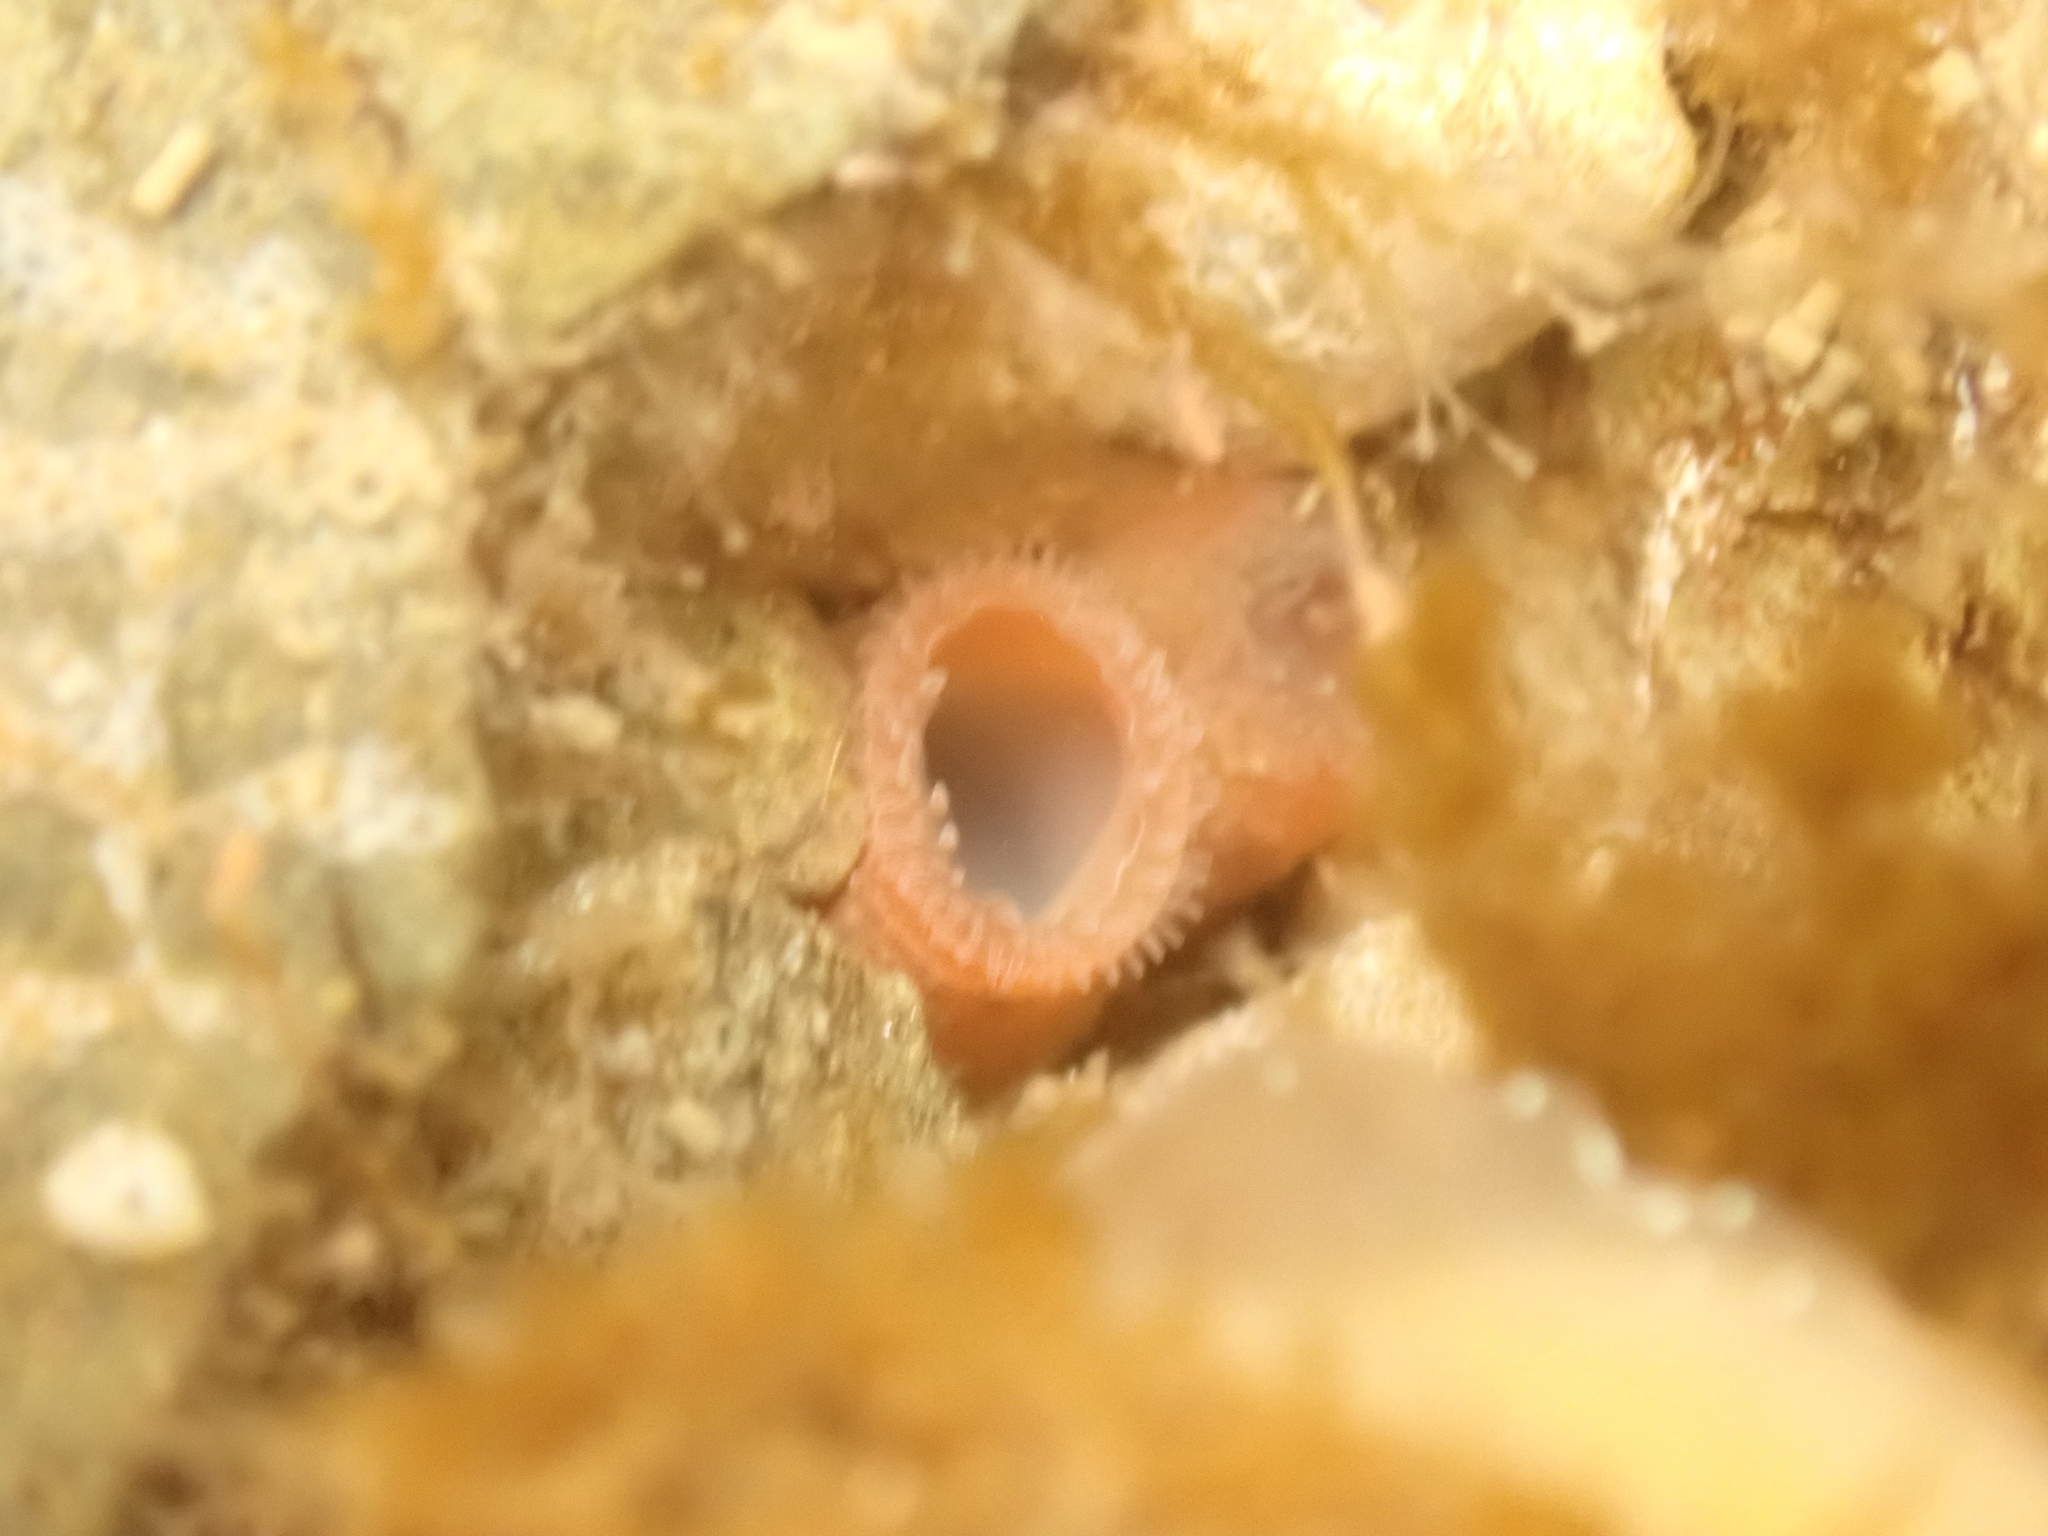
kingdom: Animalia
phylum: Mollusca
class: Bivalvia
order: Adapedonta
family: Hiatellidae
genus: Hiatella
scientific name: Hiatella arctica
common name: Arctic hiatella
